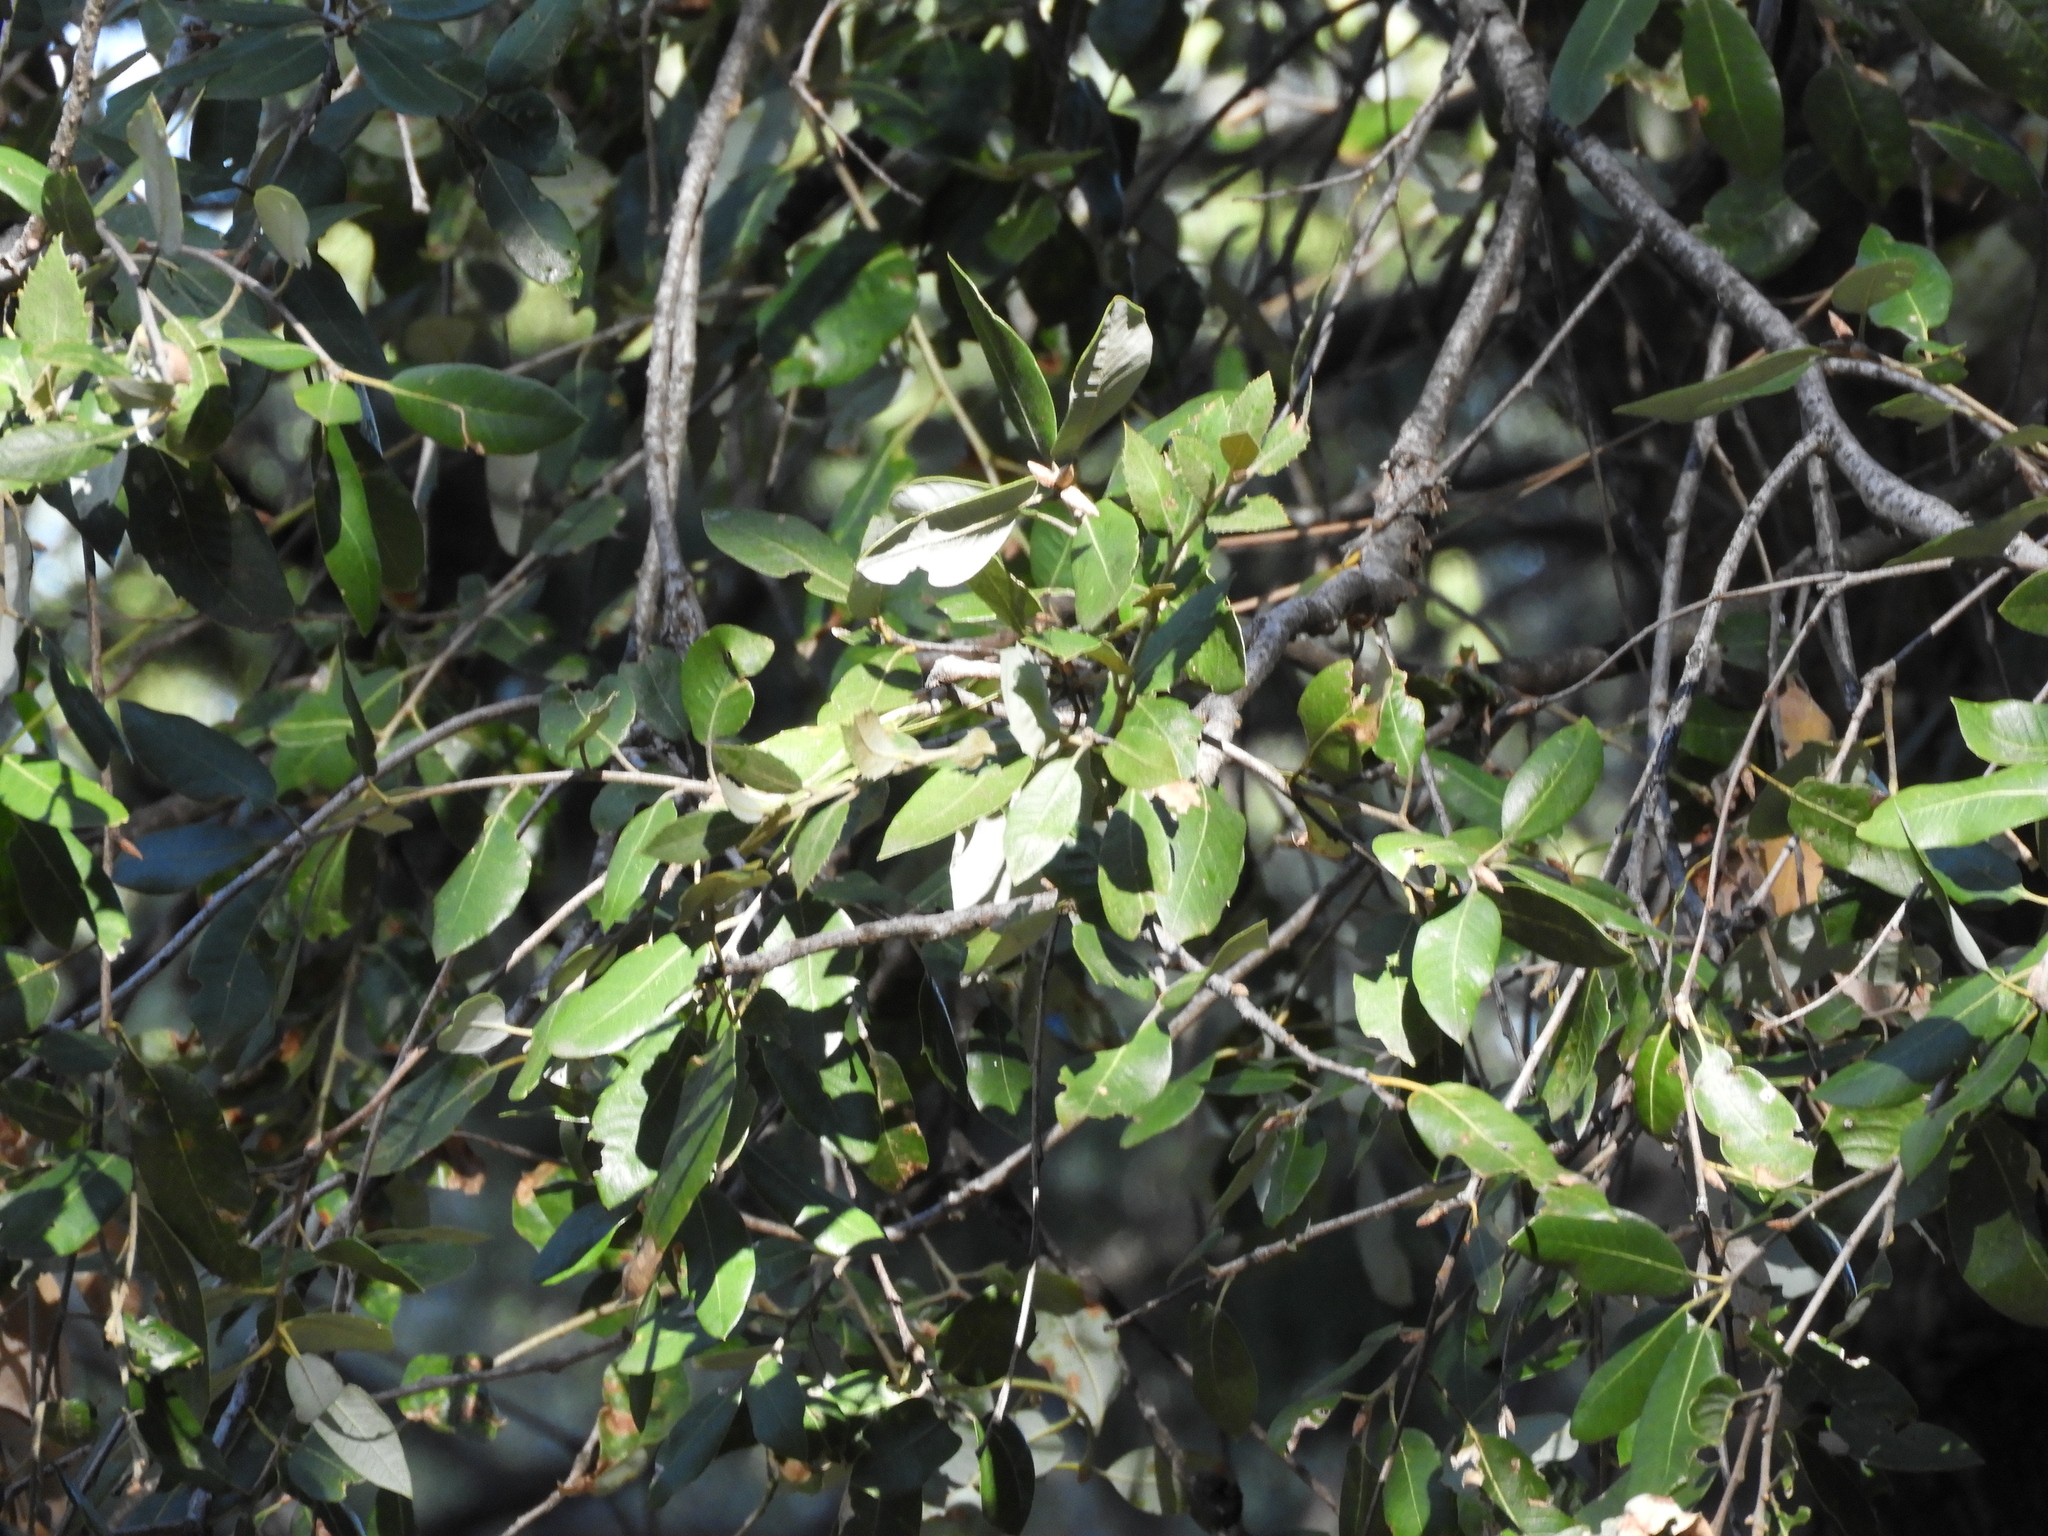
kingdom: Plantae
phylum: Tracheophyta
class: Magnoliopsida
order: Fagales
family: Fagaceae
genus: Quercus
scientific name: Quercus chrysolepis
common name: Canyon live oak
